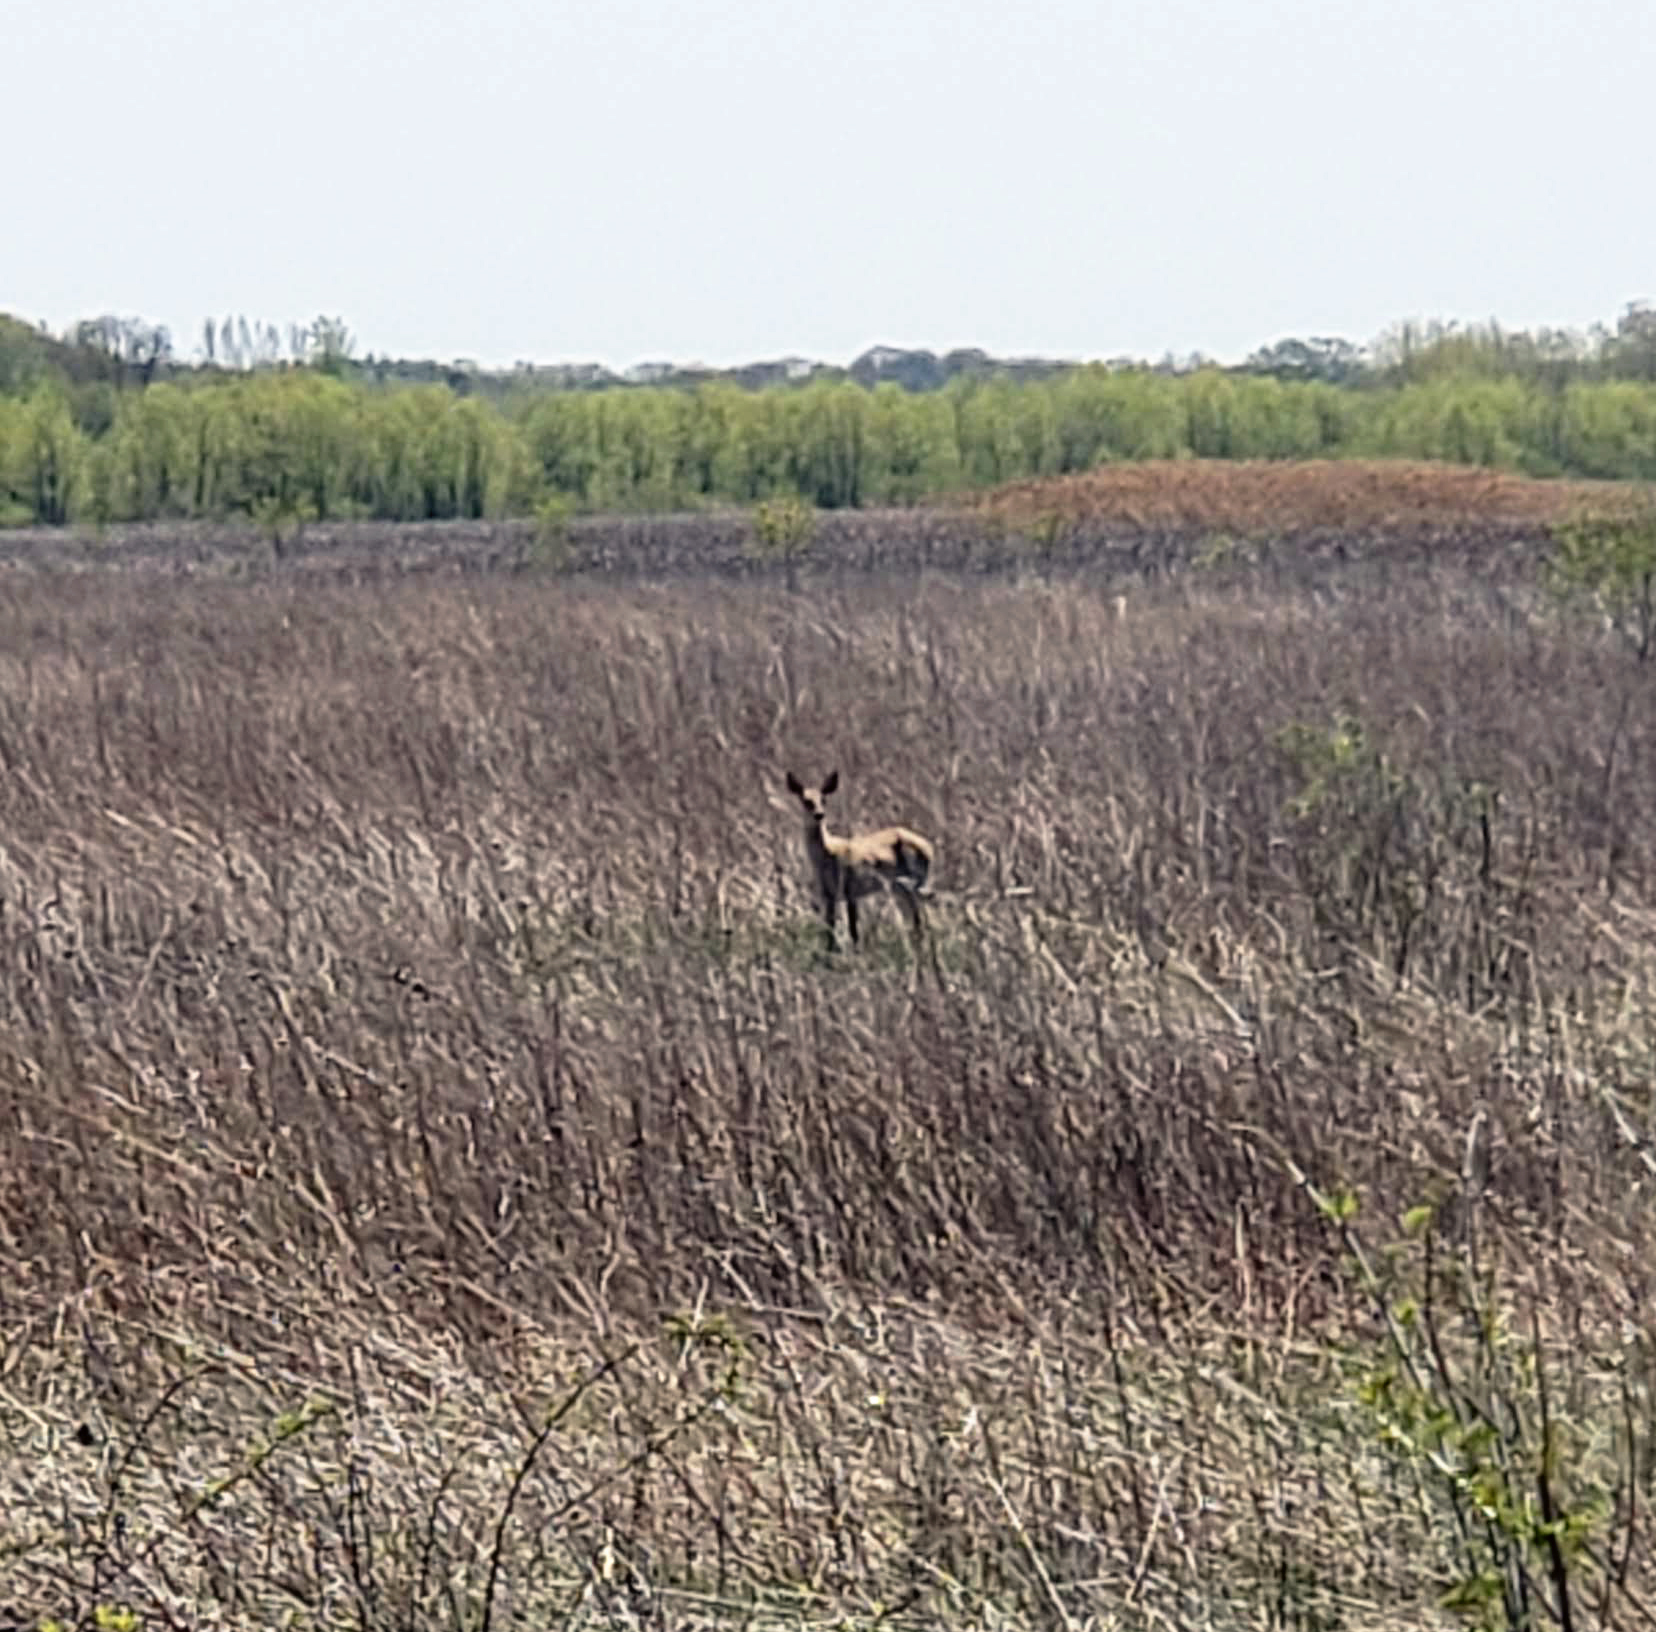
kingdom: Animalia
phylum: Chordata
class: Mammalia
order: Artiodactyla
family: Cervidae
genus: Odocoileus
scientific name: Odocoileus virginianus
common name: White-tailed deer
